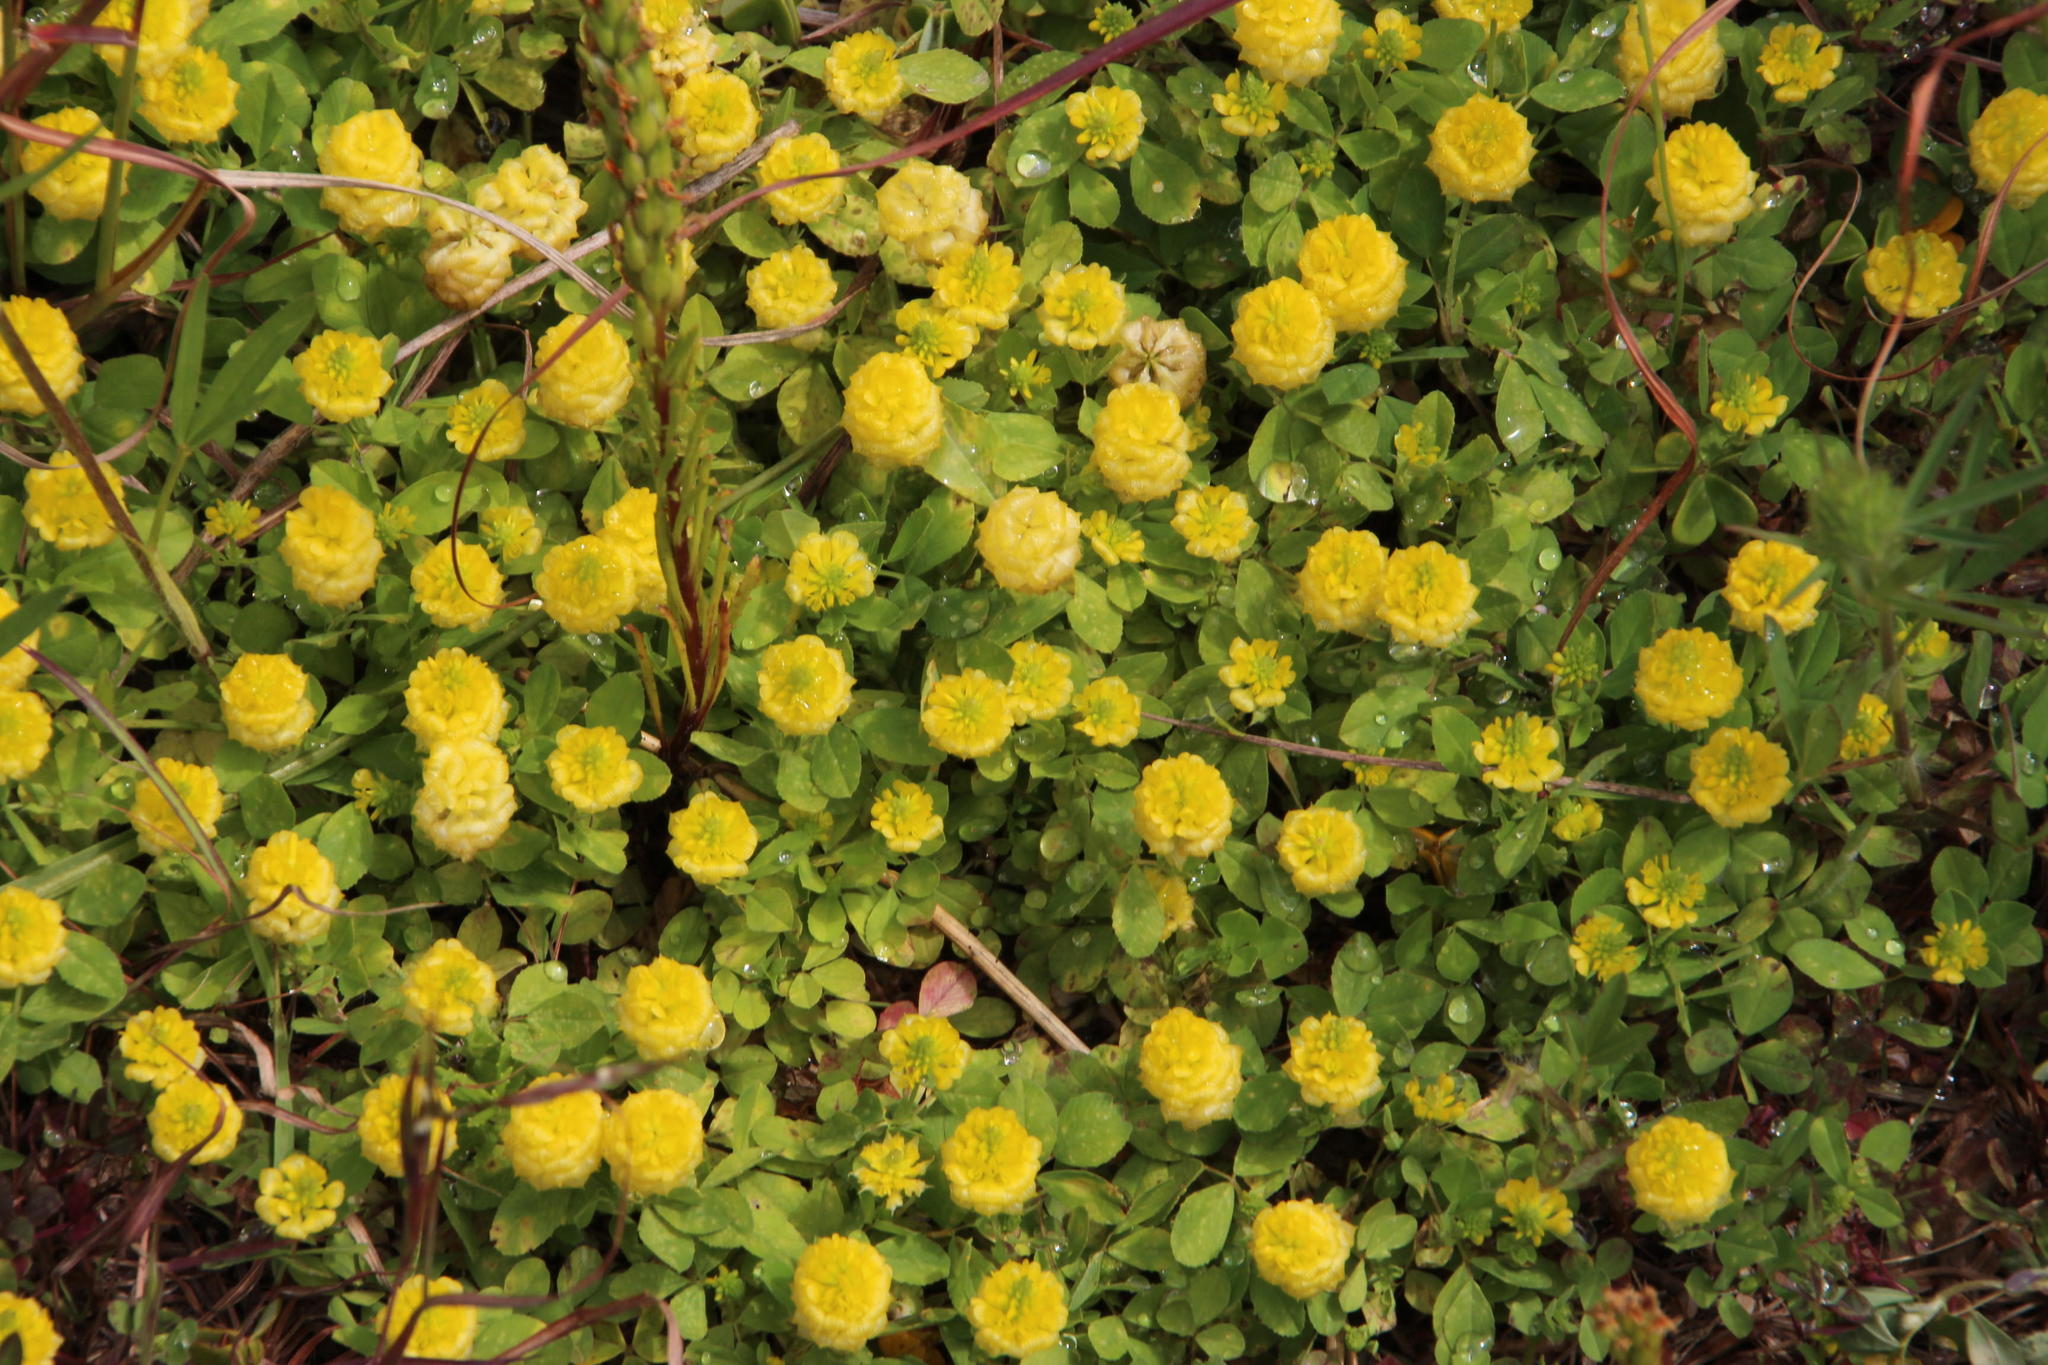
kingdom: Plantae
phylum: Tracheophyta
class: Magnoliopsida
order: Fabales
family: Fabaceae
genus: Trifolium
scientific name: Trifolium campestre
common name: Field clover
